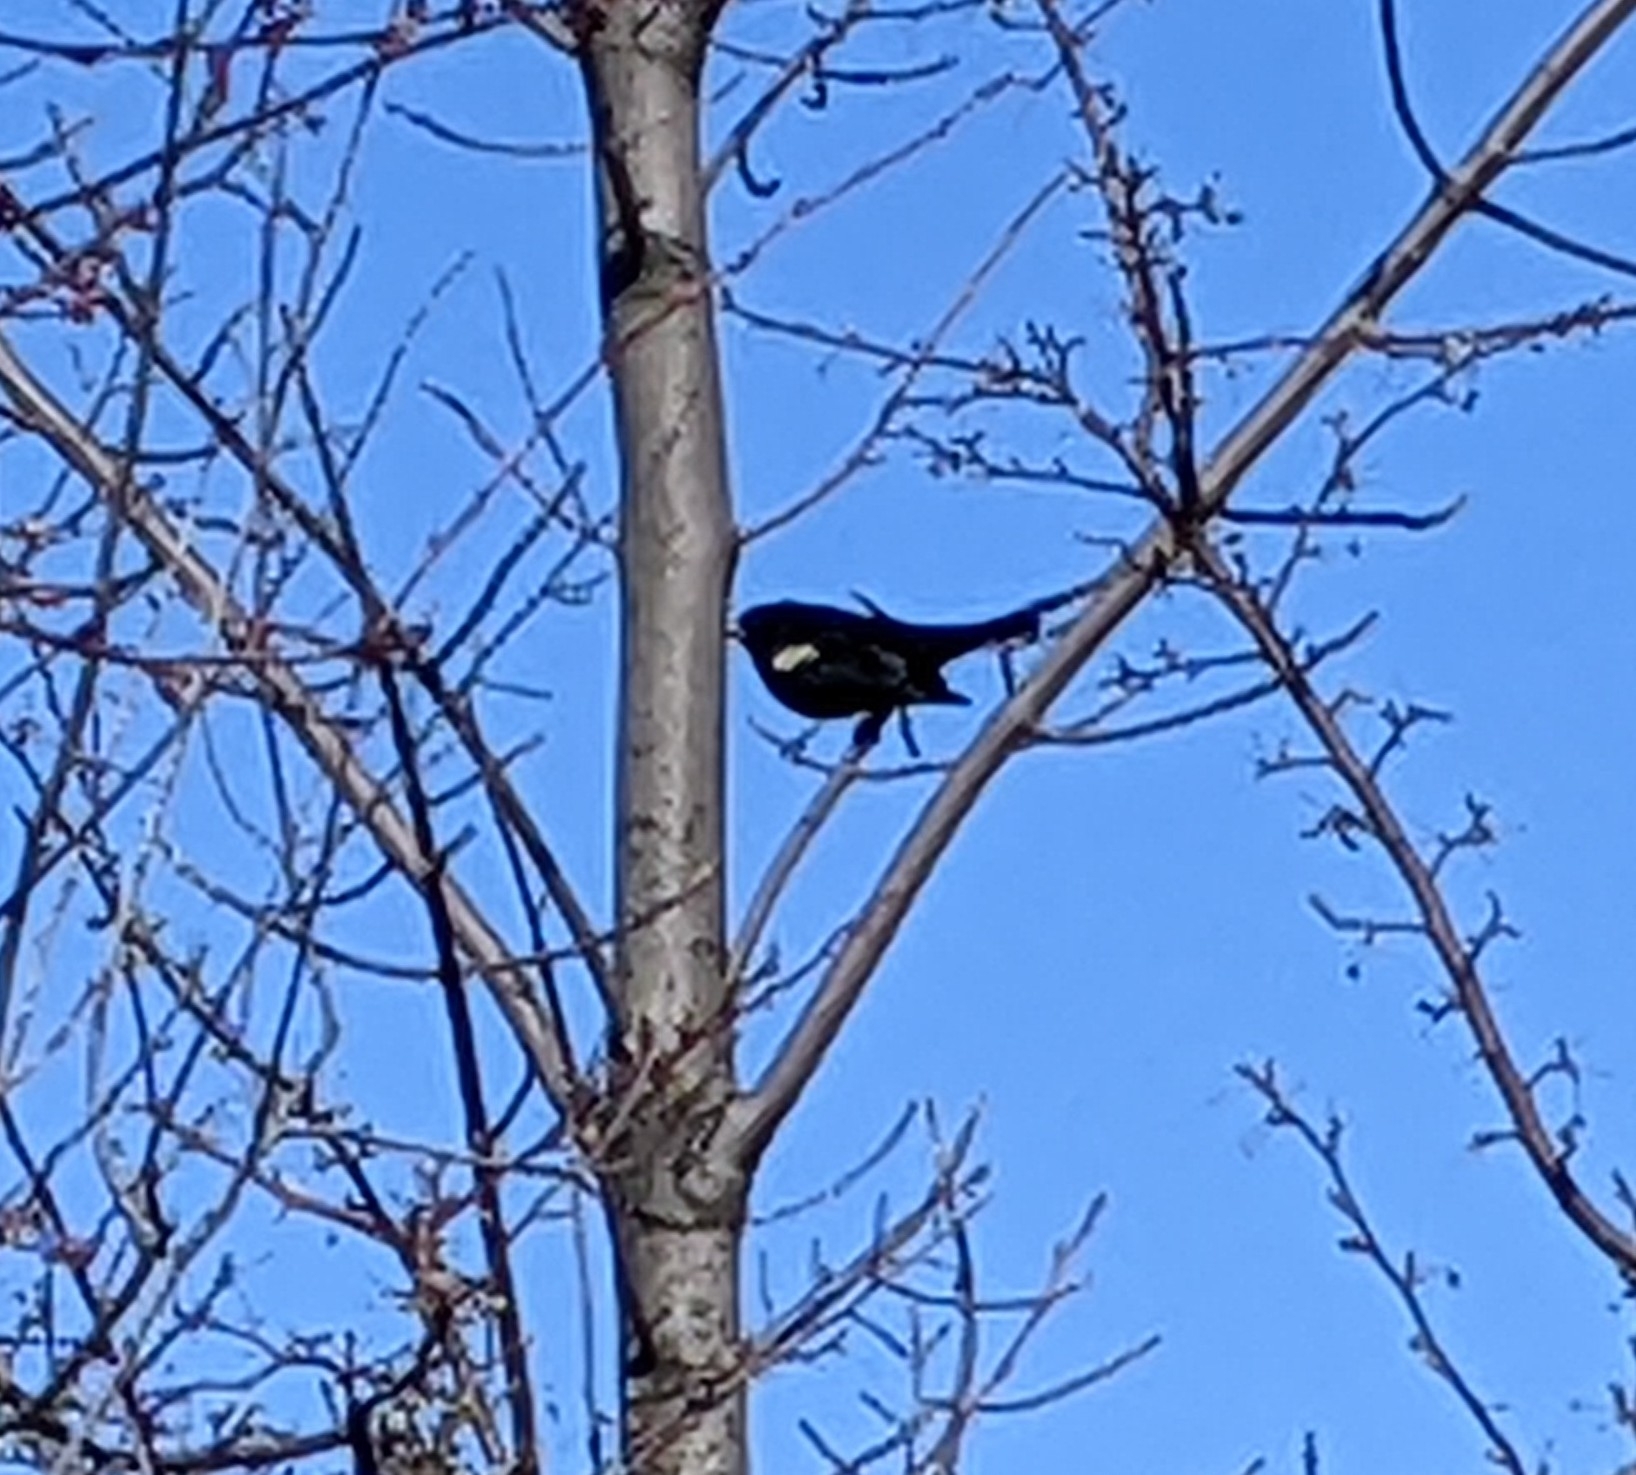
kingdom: Animalia
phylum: Chordata
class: Aves
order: Passeriformes
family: Icteridae
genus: Agelaius
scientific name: Agelaius phoeniceus
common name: Red-winged blackbird
